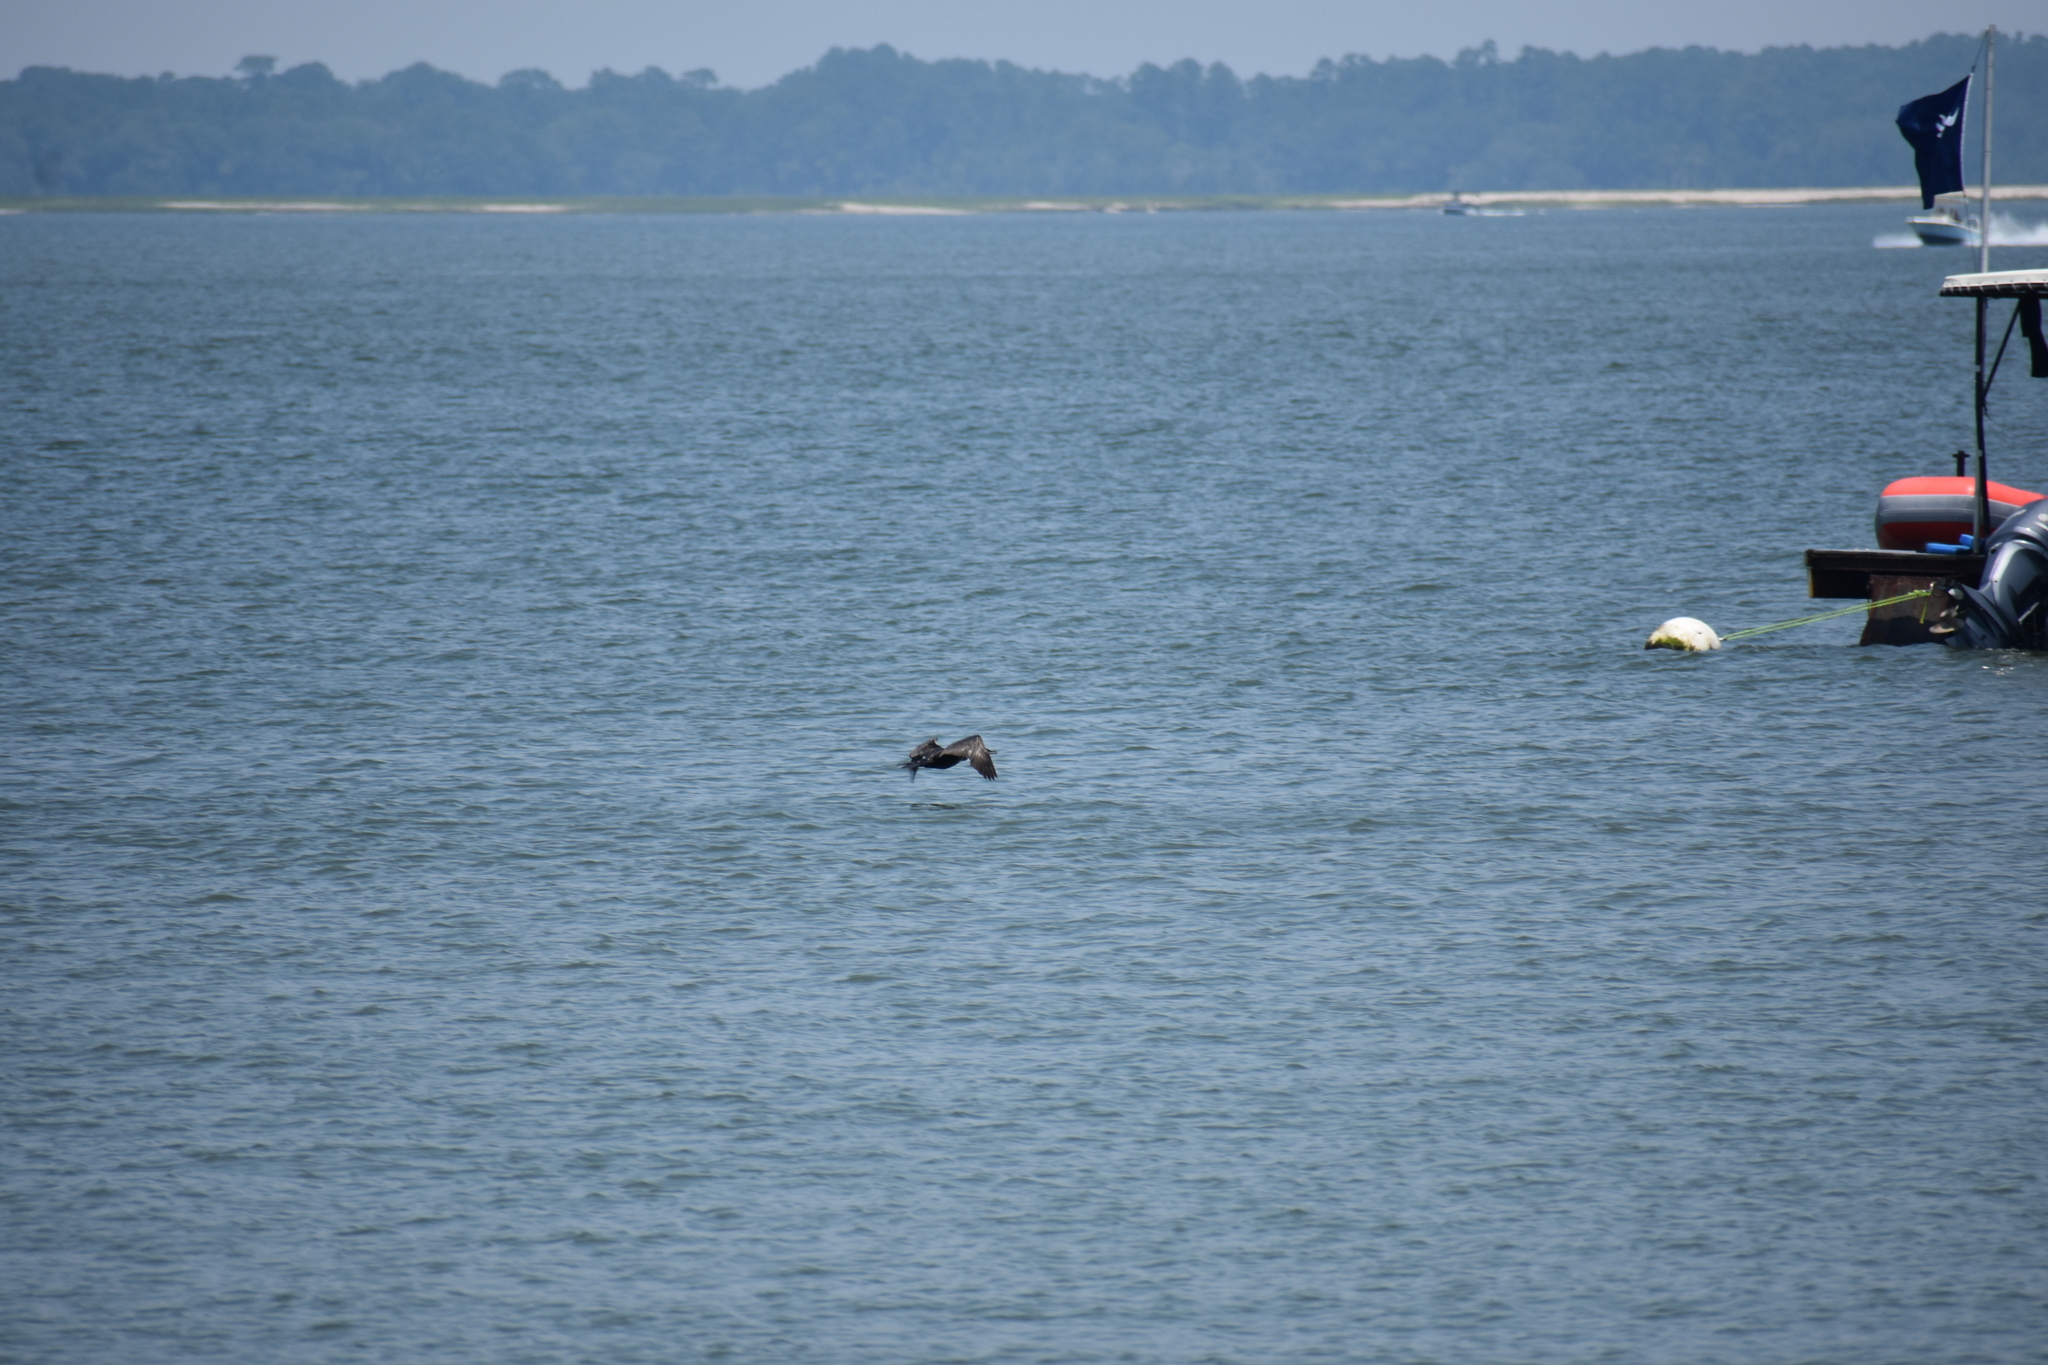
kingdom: Animalia
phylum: Chordata
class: Aves
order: Suliformes
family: Phalacrocoracidae
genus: Phalacrocorax
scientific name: Phalacrocorax auritus
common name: Double-crested cormorant
